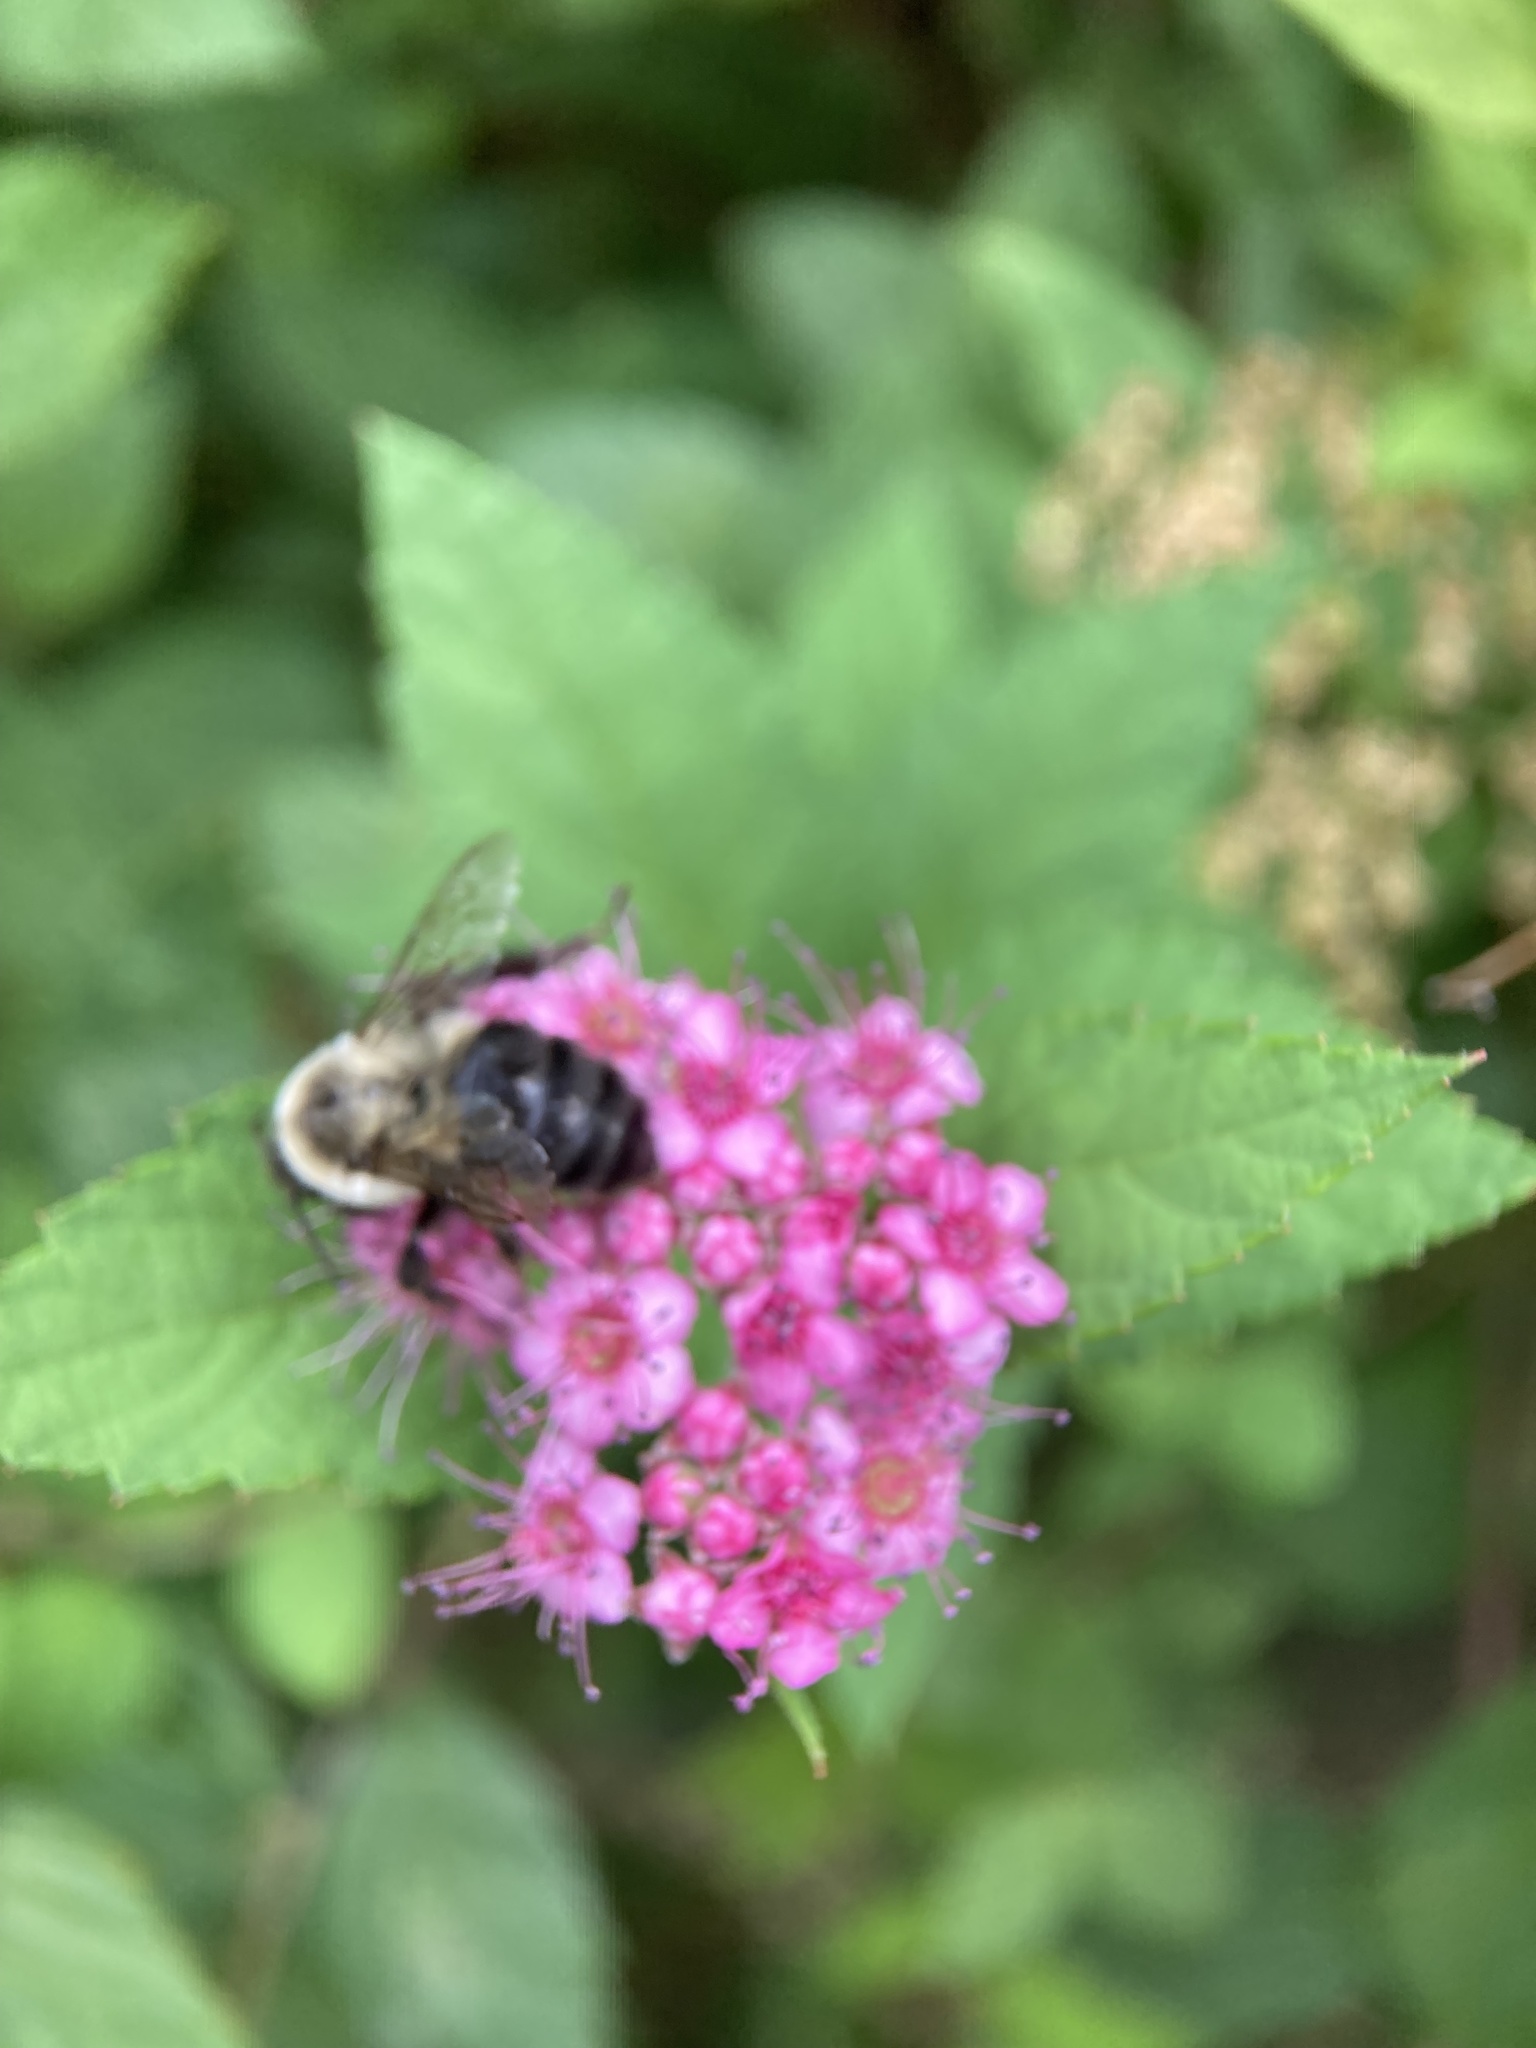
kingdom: Animalia
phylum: Arthropoda
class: Insecta
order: Hymenoptera
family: Apidae
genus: Bombus
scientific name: Bombus impatiens
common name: Common eastern bumble bee
